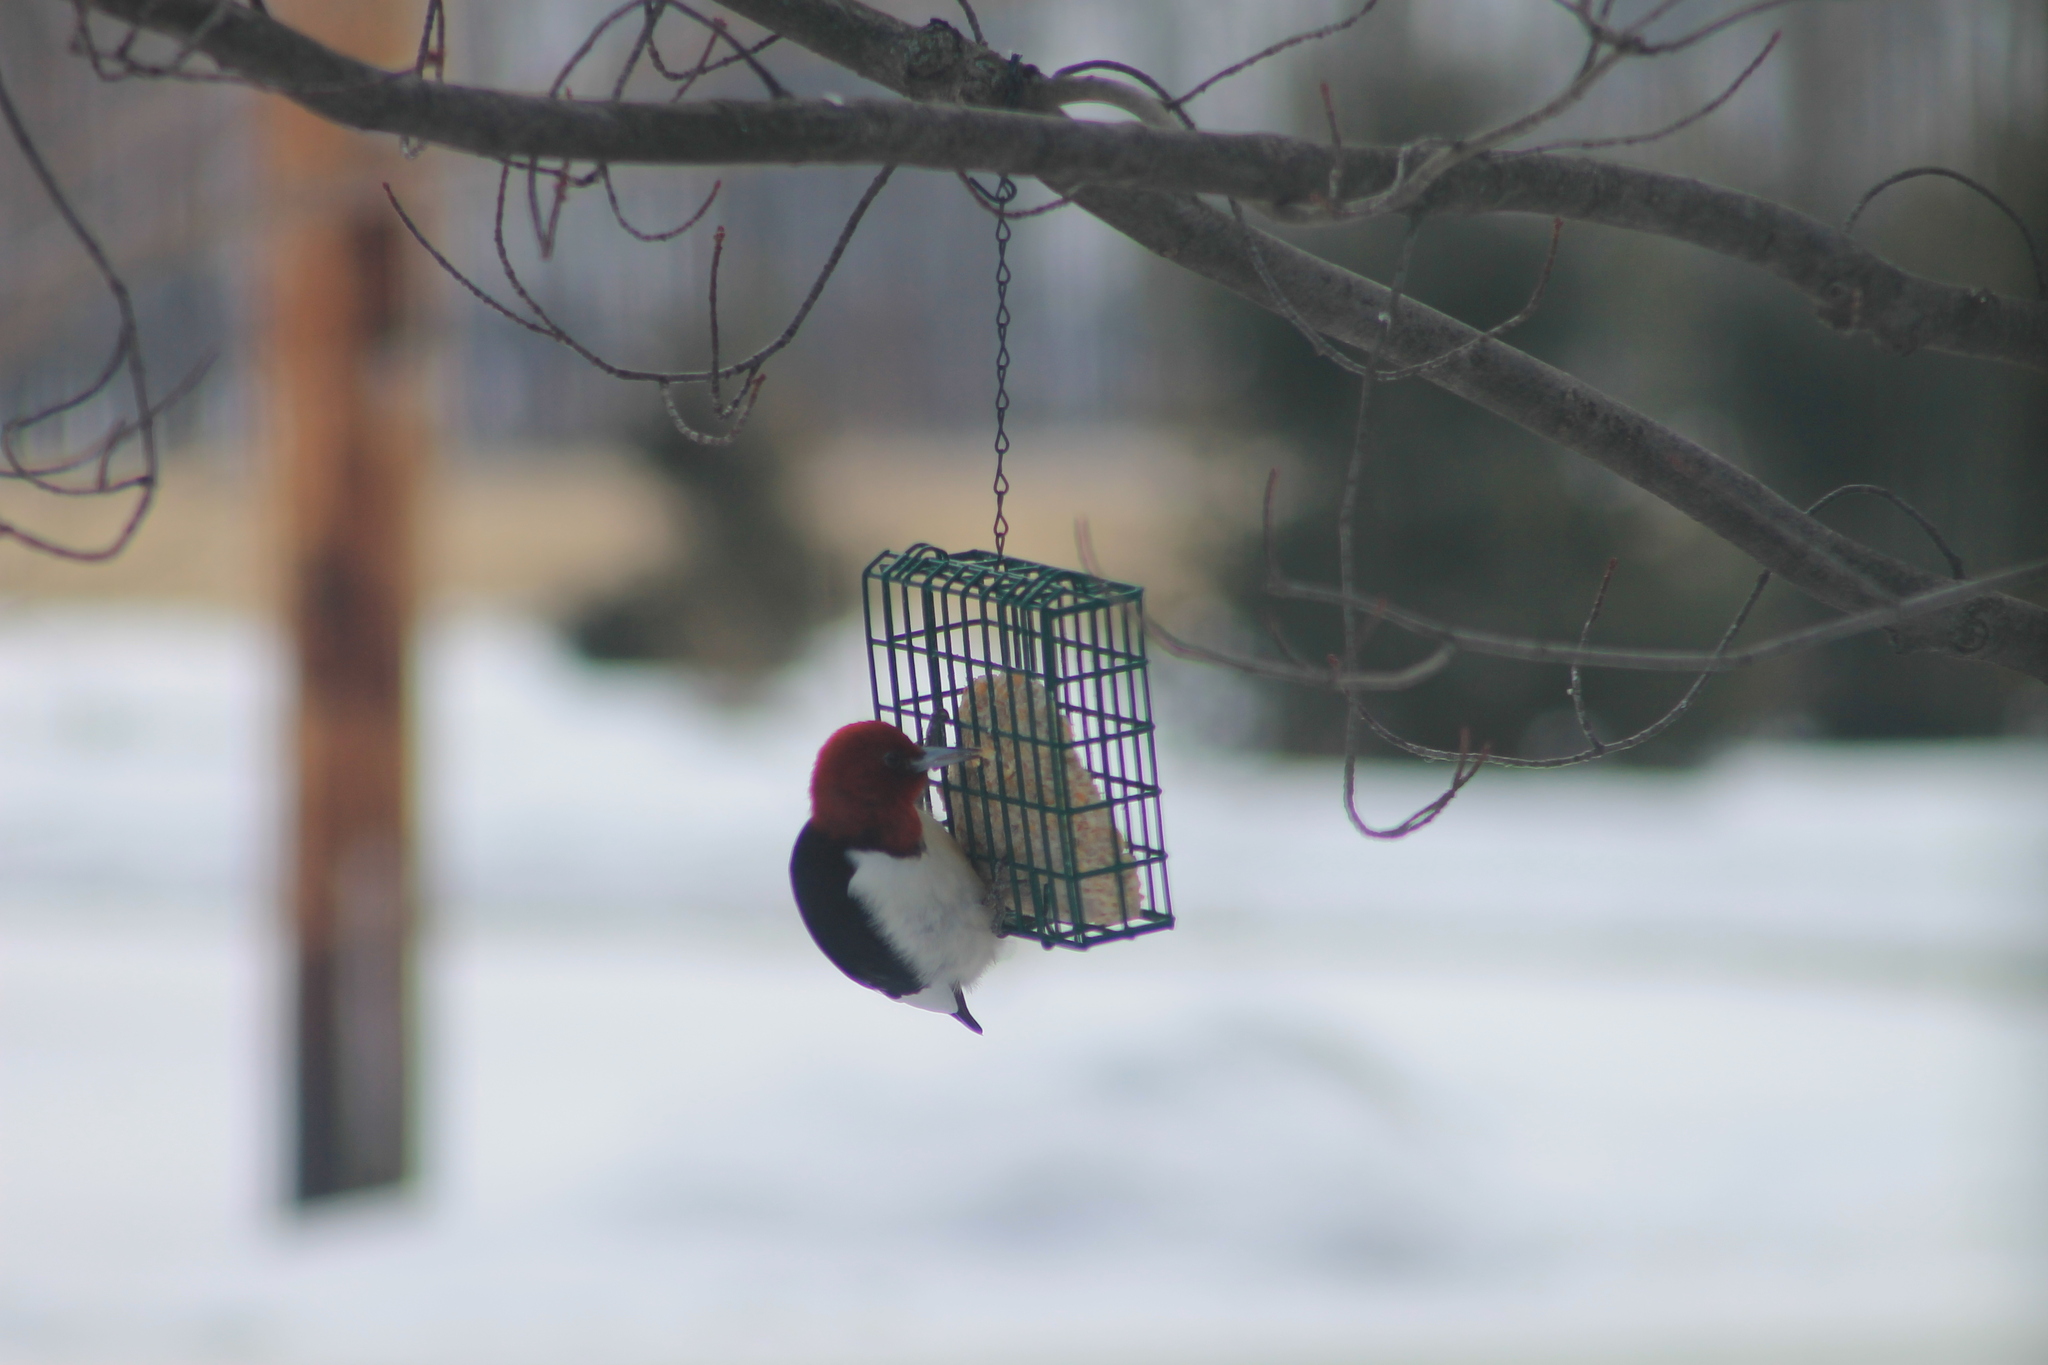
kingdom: Animalia
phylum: Chordata
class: Aves
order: Piciformes
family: Picidae
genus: Melanerpes
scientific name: Melanerpes erythrocephalus
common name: Red-headed woodpecker
